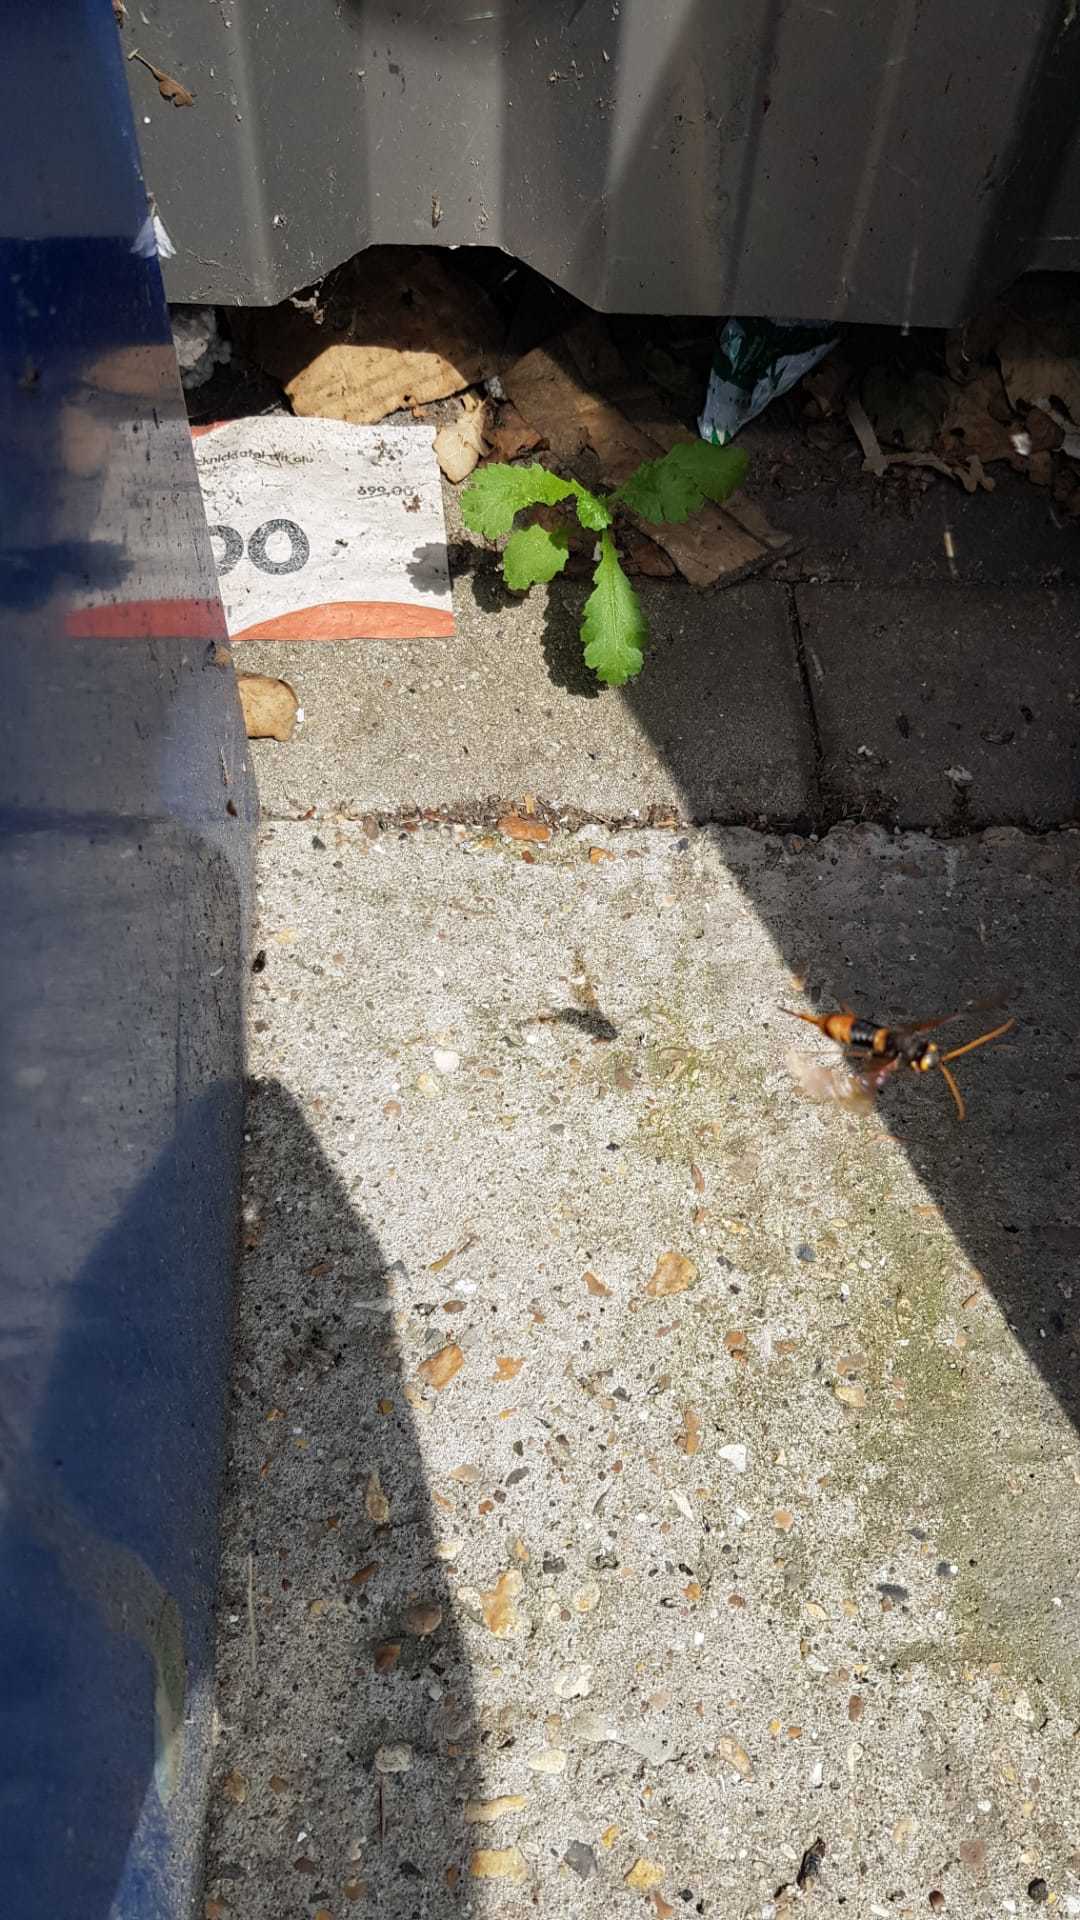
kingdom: Animalia
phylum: Arthropoda
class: Insecta
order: Hymenoptera
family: Siricidae
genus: Urocerus
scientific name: Urocerus gigas
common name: Giant woodwasp
